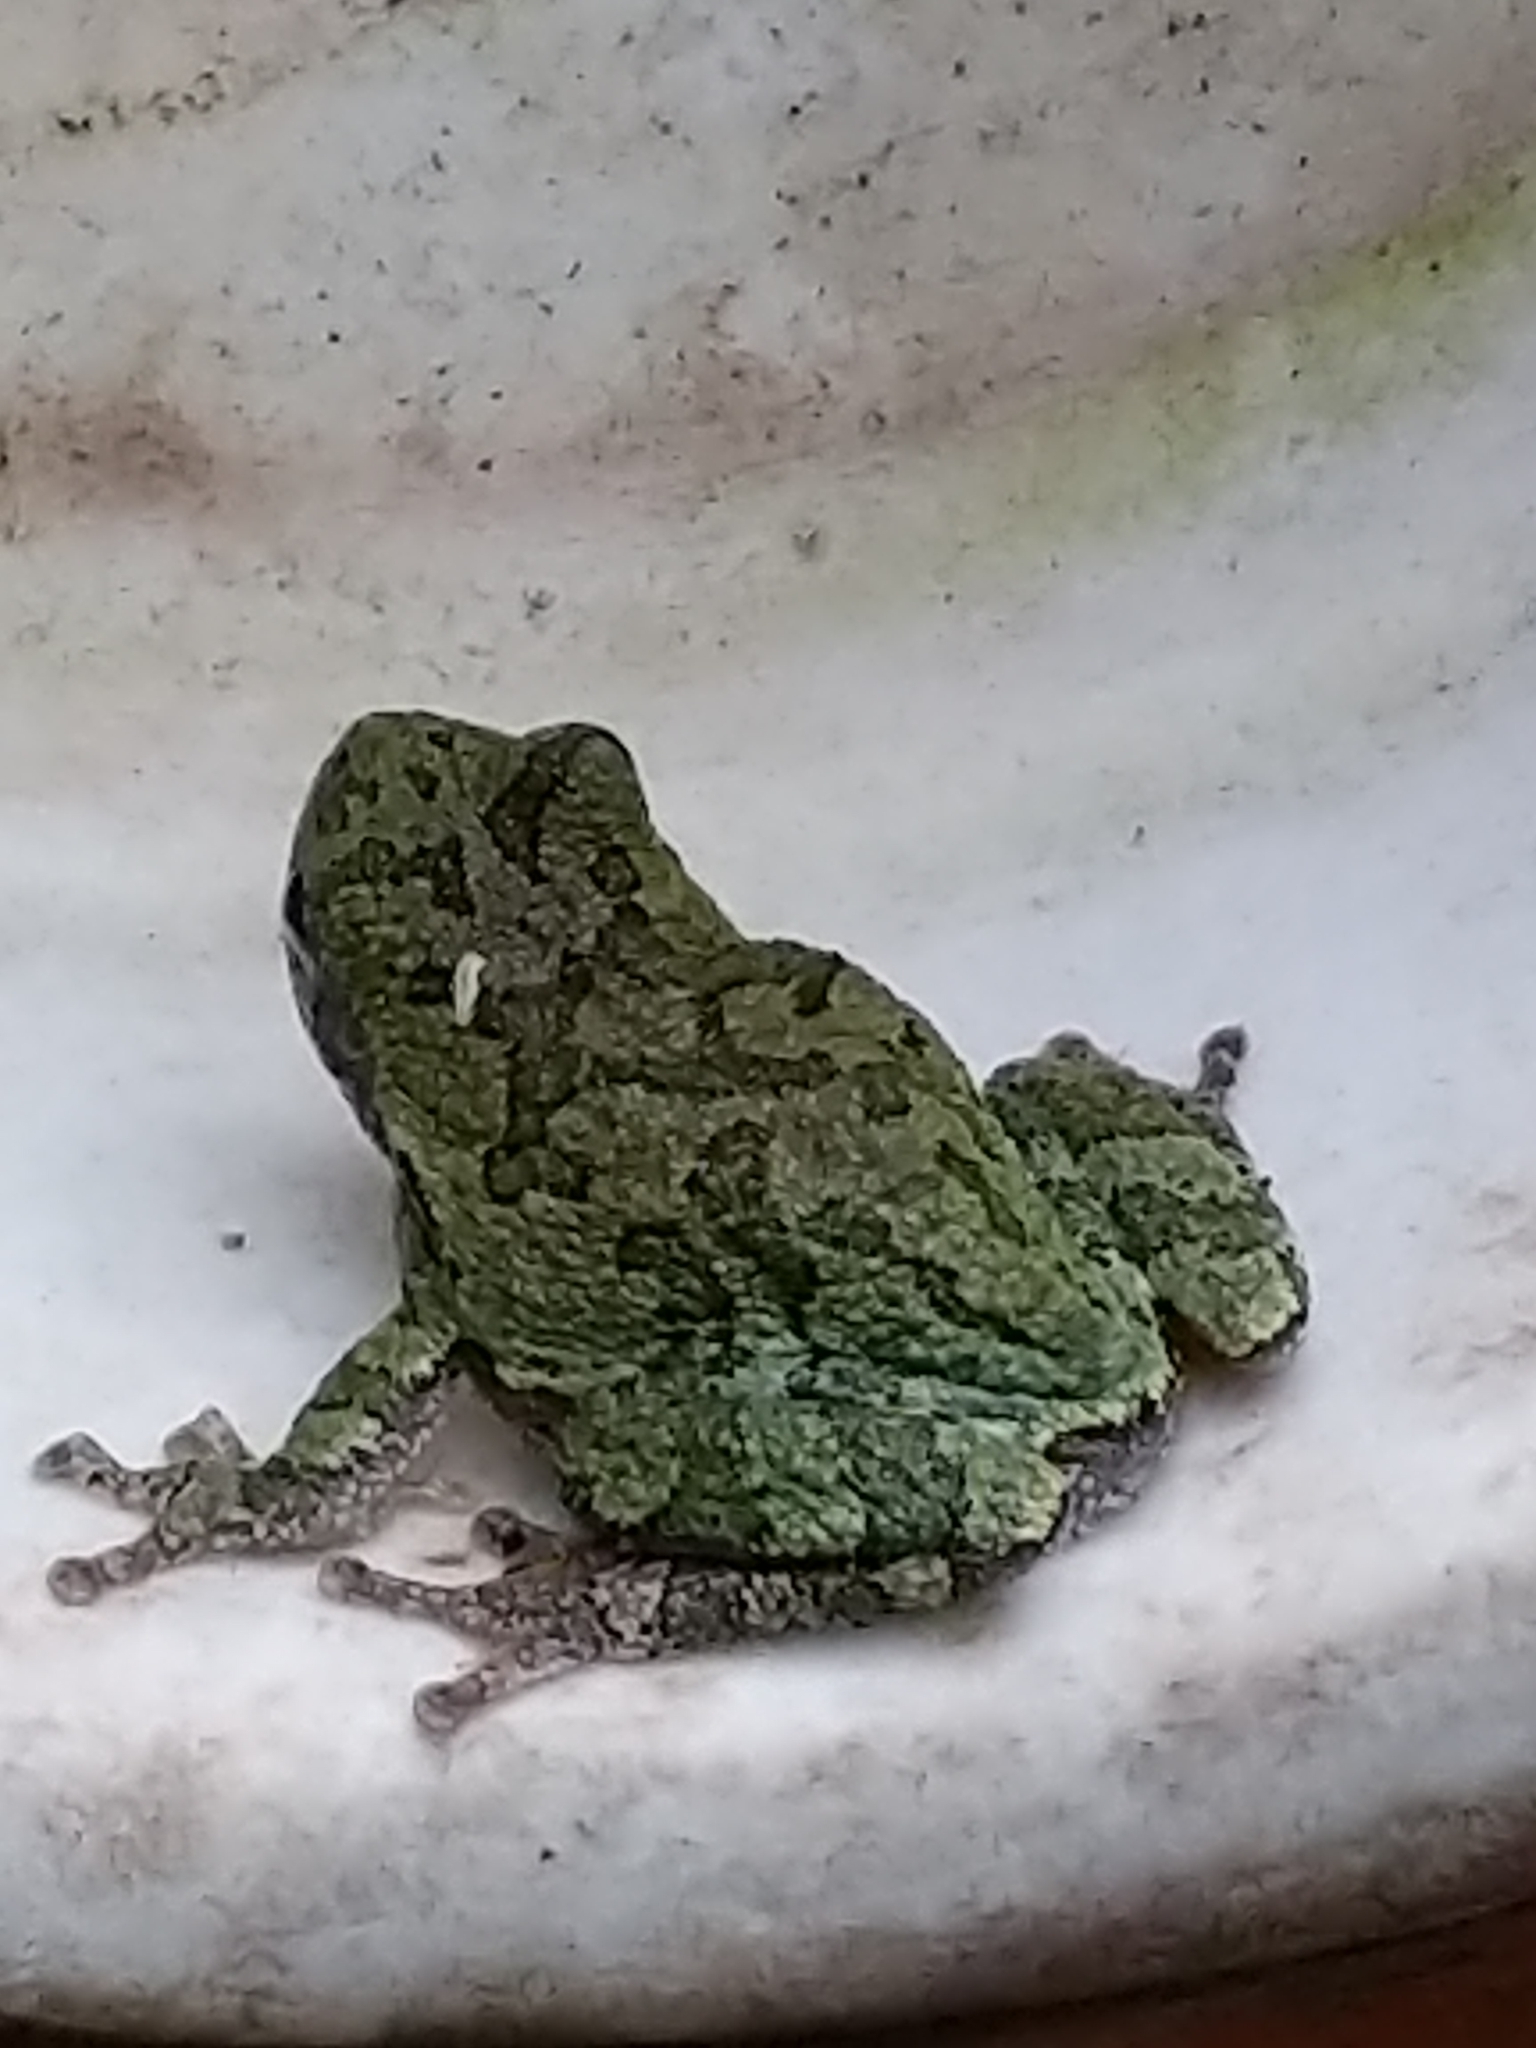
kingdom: Animalia
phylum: Chordata
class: Amphibia
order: Anura
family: Hylidae
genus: Hyla
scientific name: Hyla
